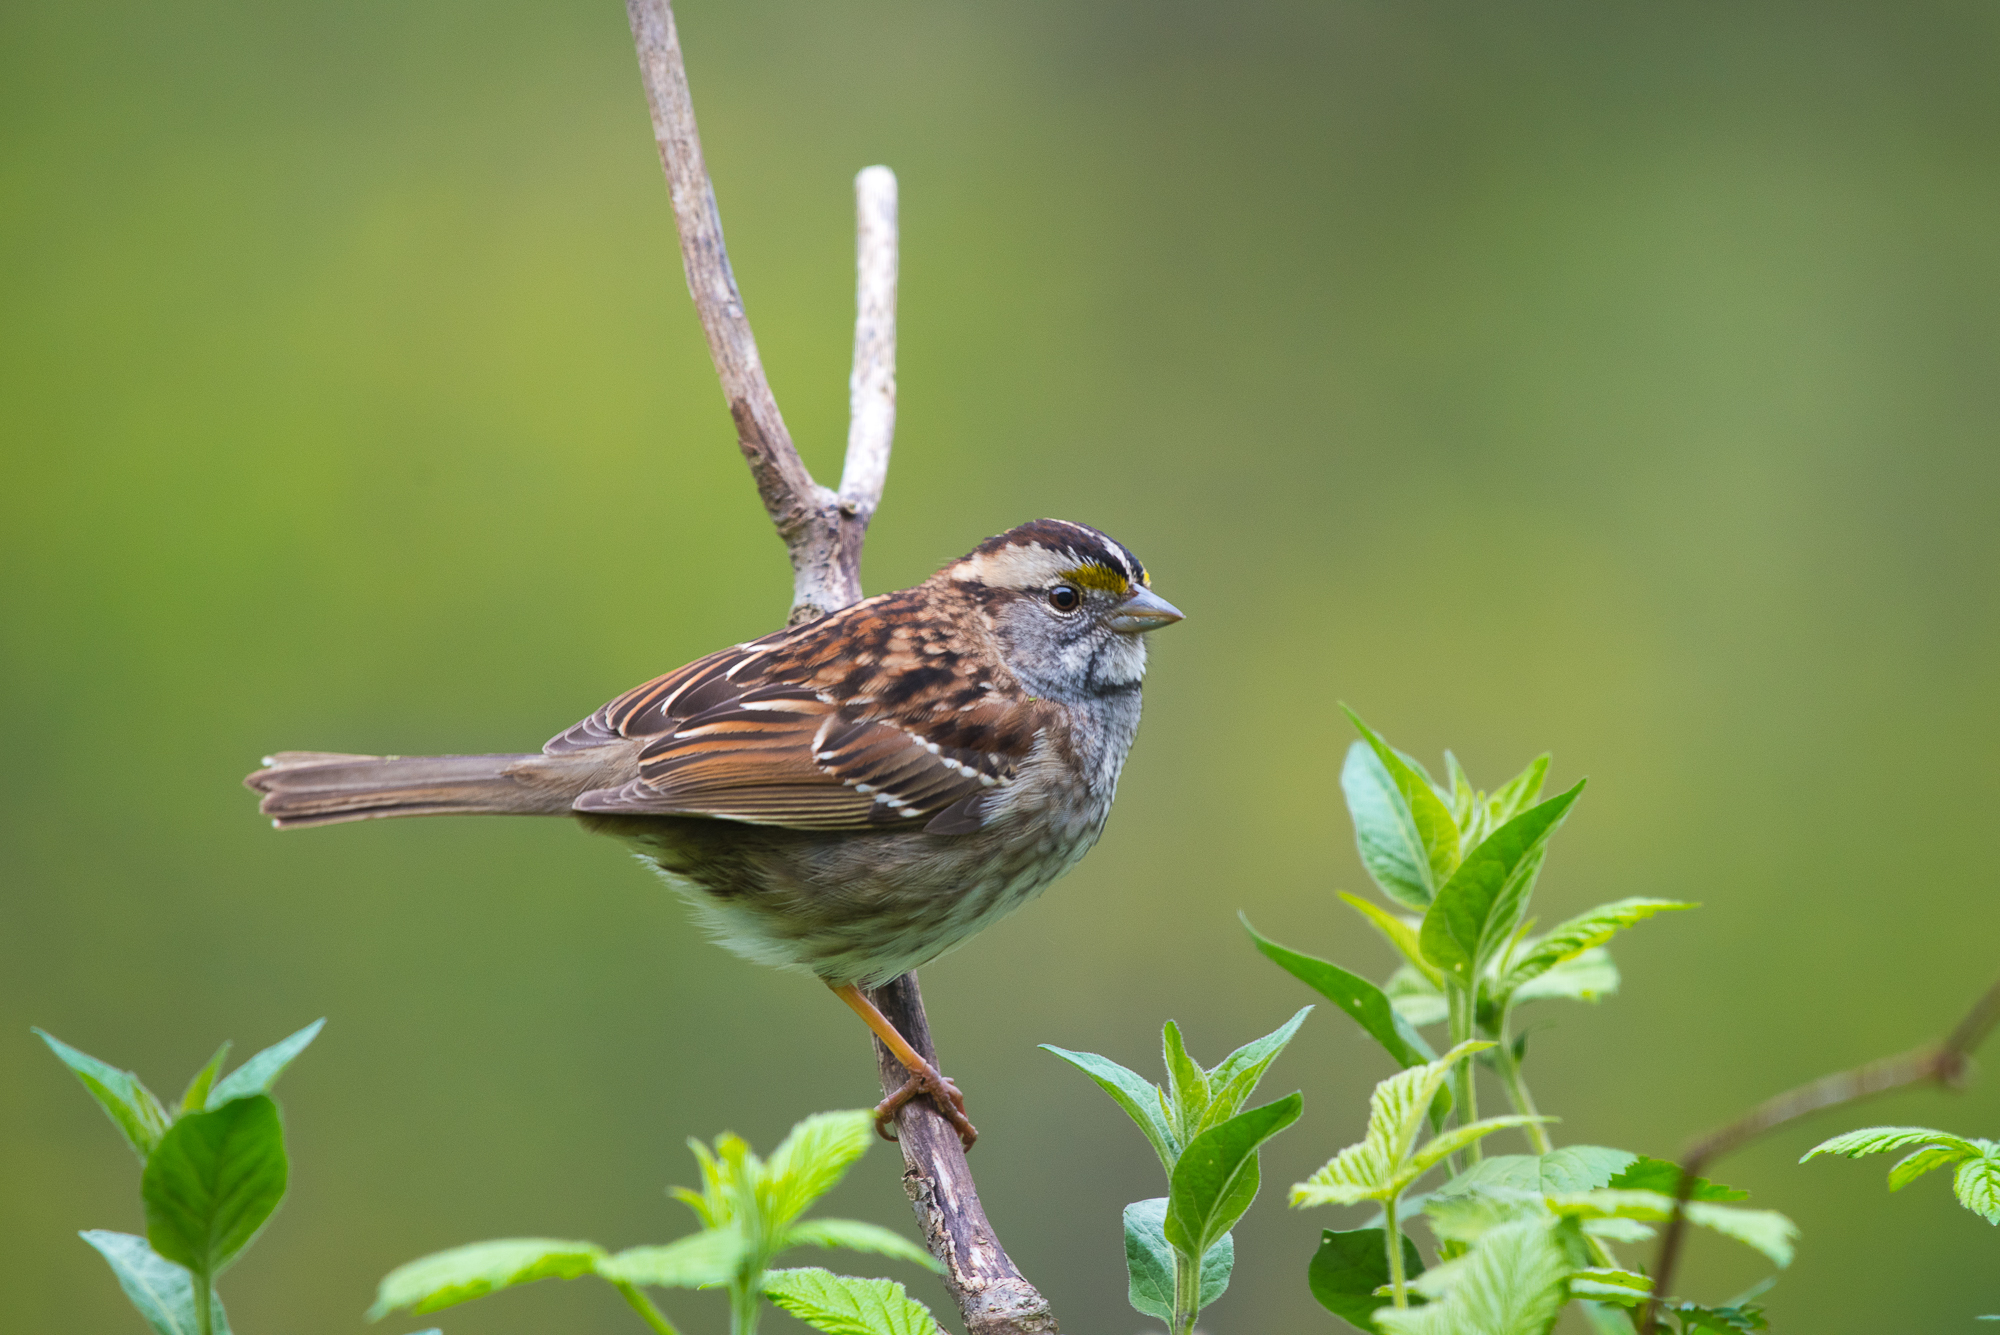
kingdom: Animalia
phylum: Chordata
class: Aves
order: Passeriformes
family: Passerellidae
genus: Zonotrichia
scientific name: Zonotrichia albicollis
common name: White-throated sparrow
